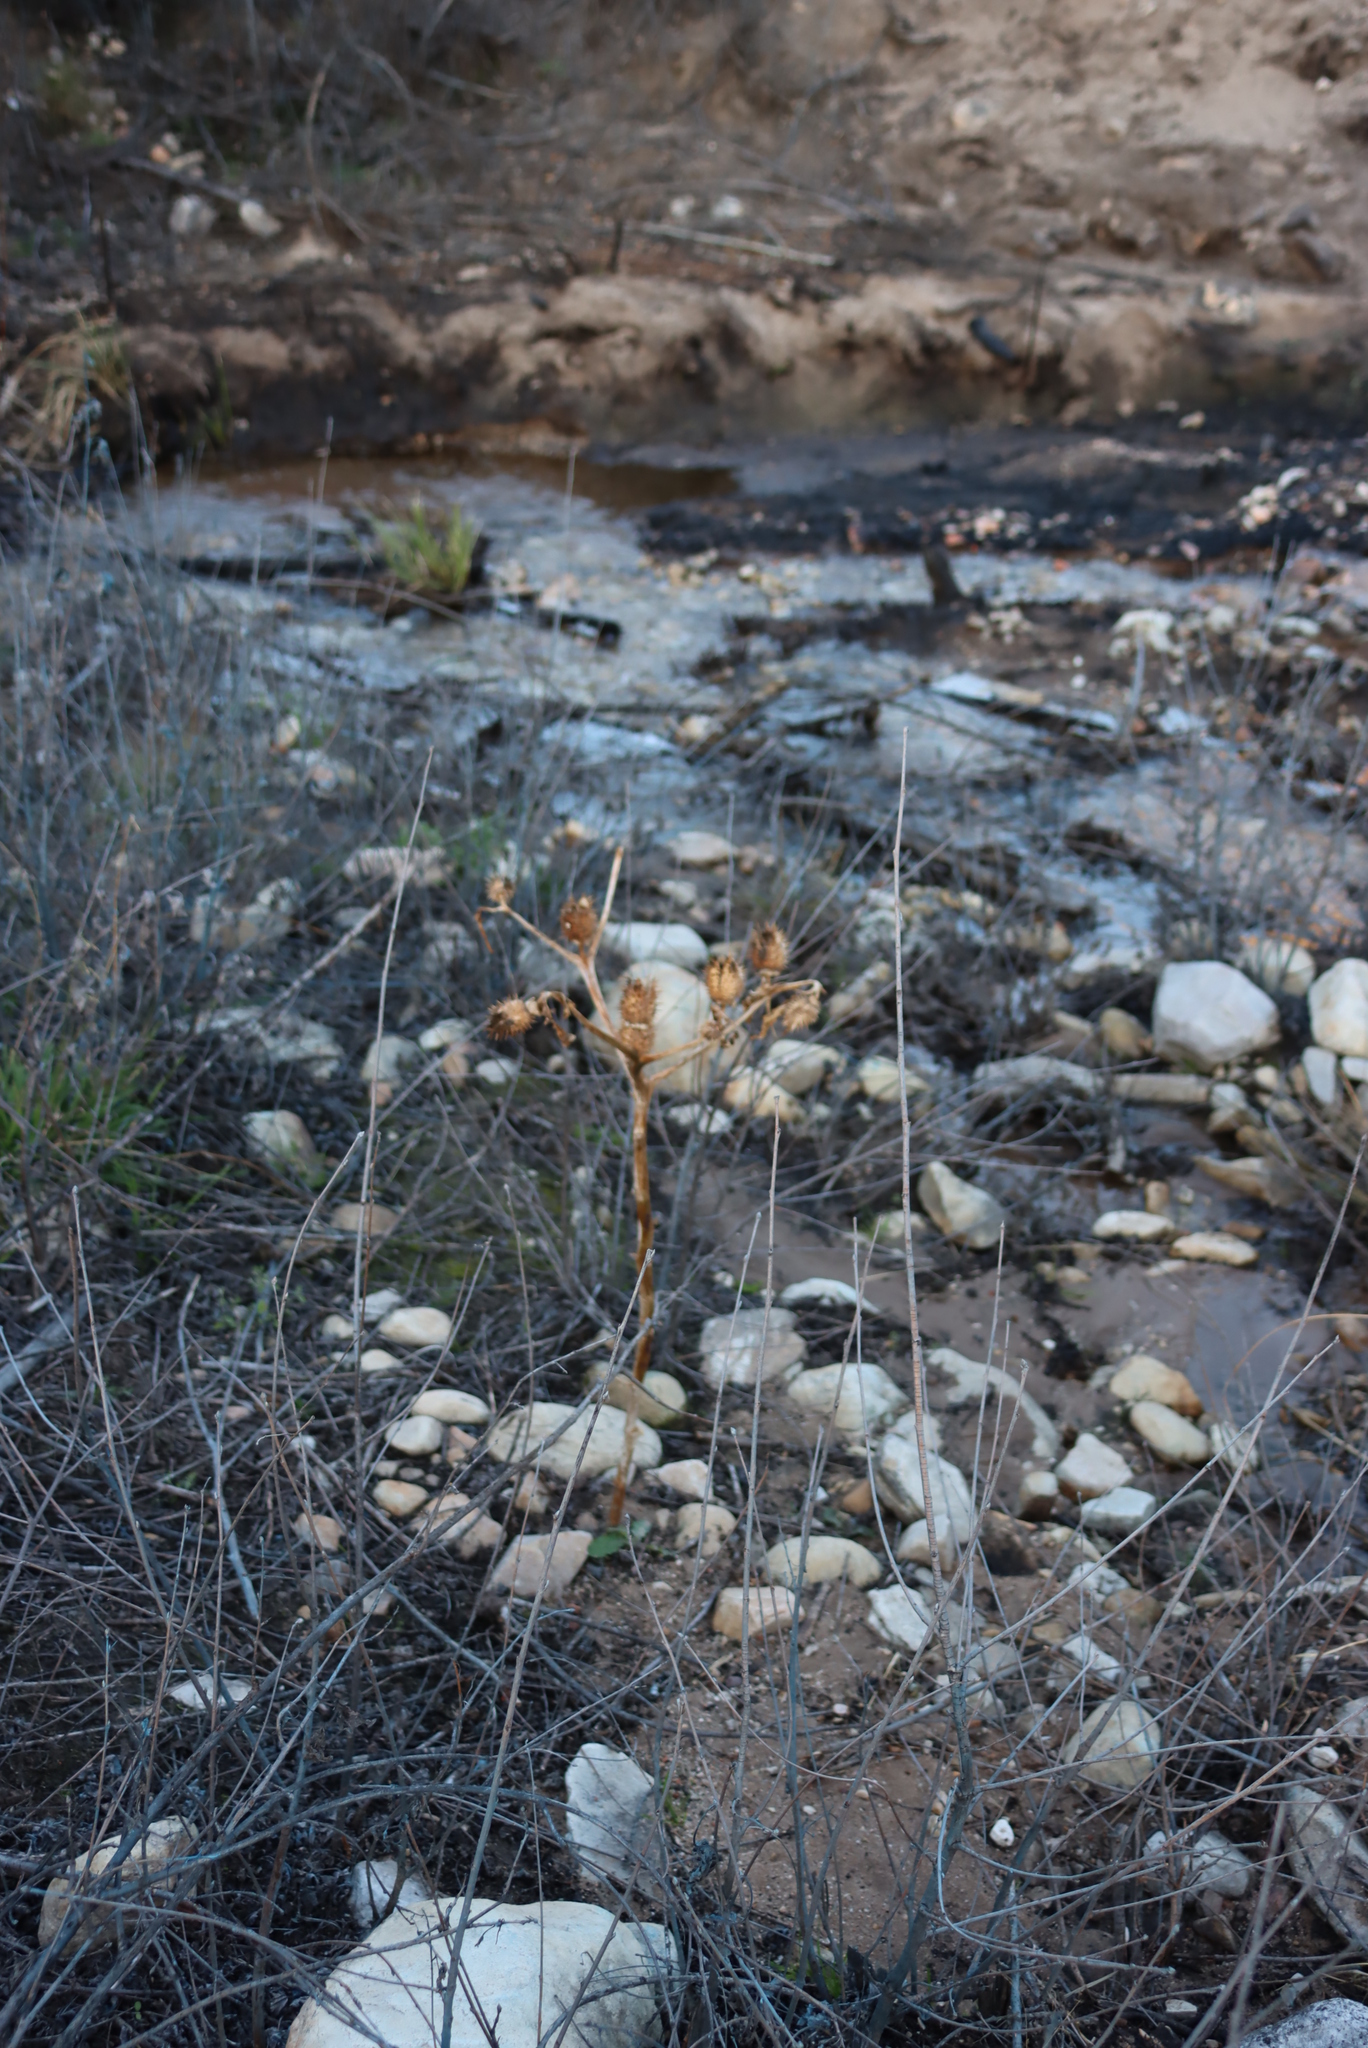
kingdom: Plantae
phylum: Tracheophyta
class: Magnoliopsida
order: Solanales
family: Solanaceae
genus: Datura
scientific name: Datura stramonium
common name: Thorn-apple
